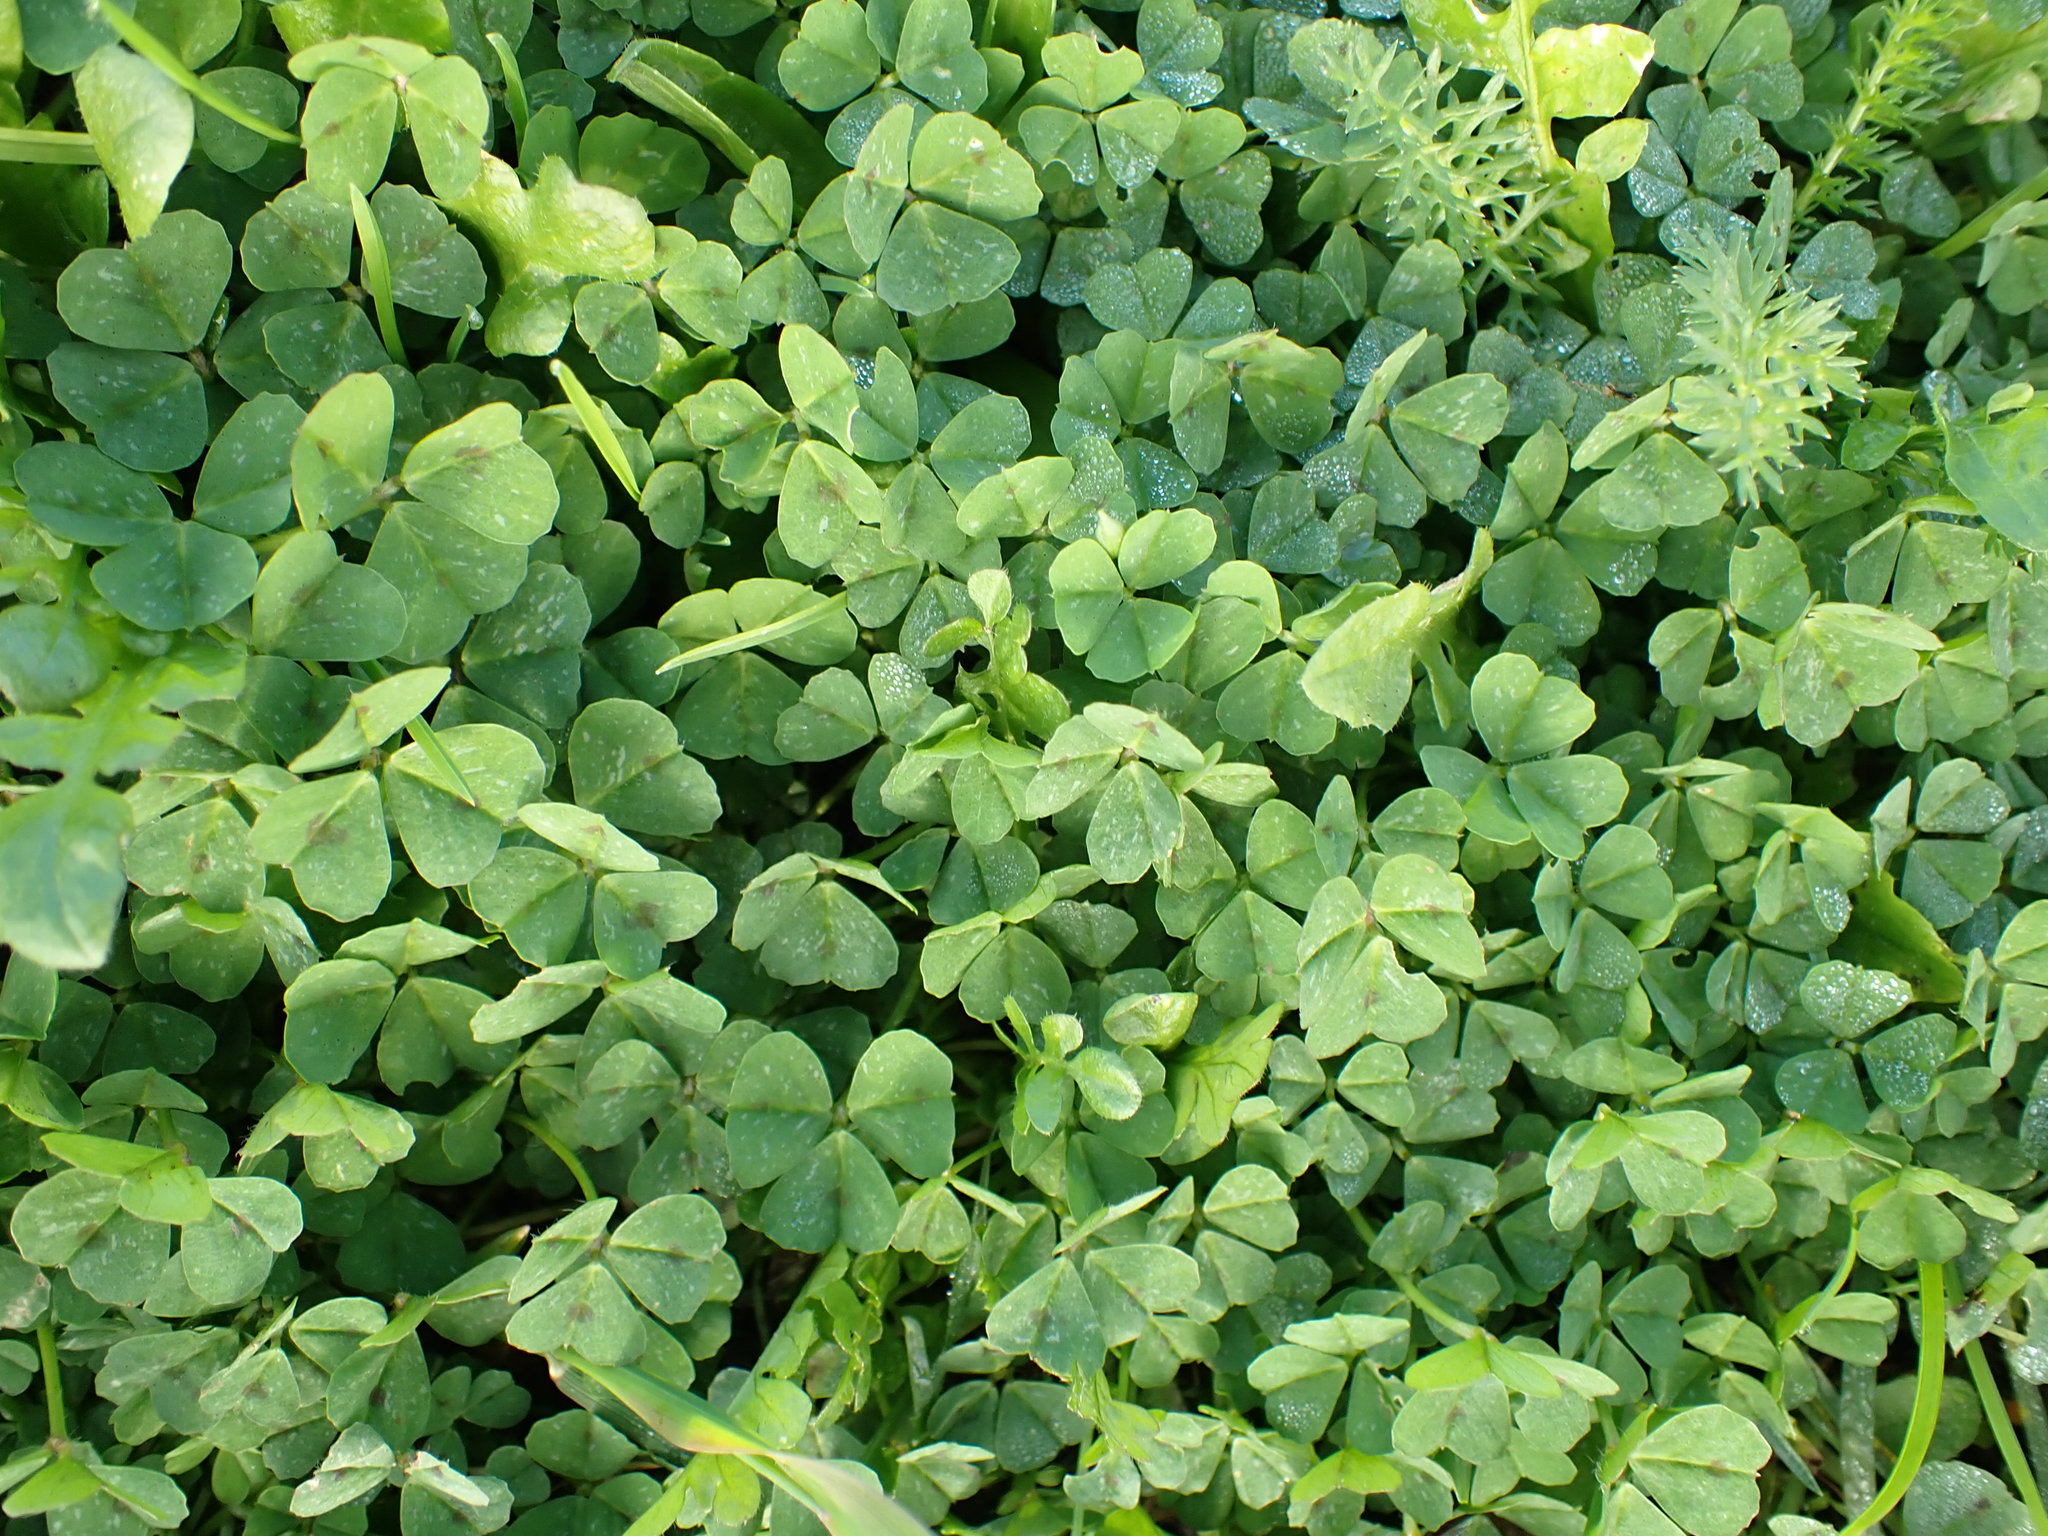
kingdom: Plantae
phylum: Tracheophyta
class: Magnoliopsida
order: Fabales
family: Fabaceae
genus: Medicago
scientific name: Medicago arabica
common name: Spotted medick
